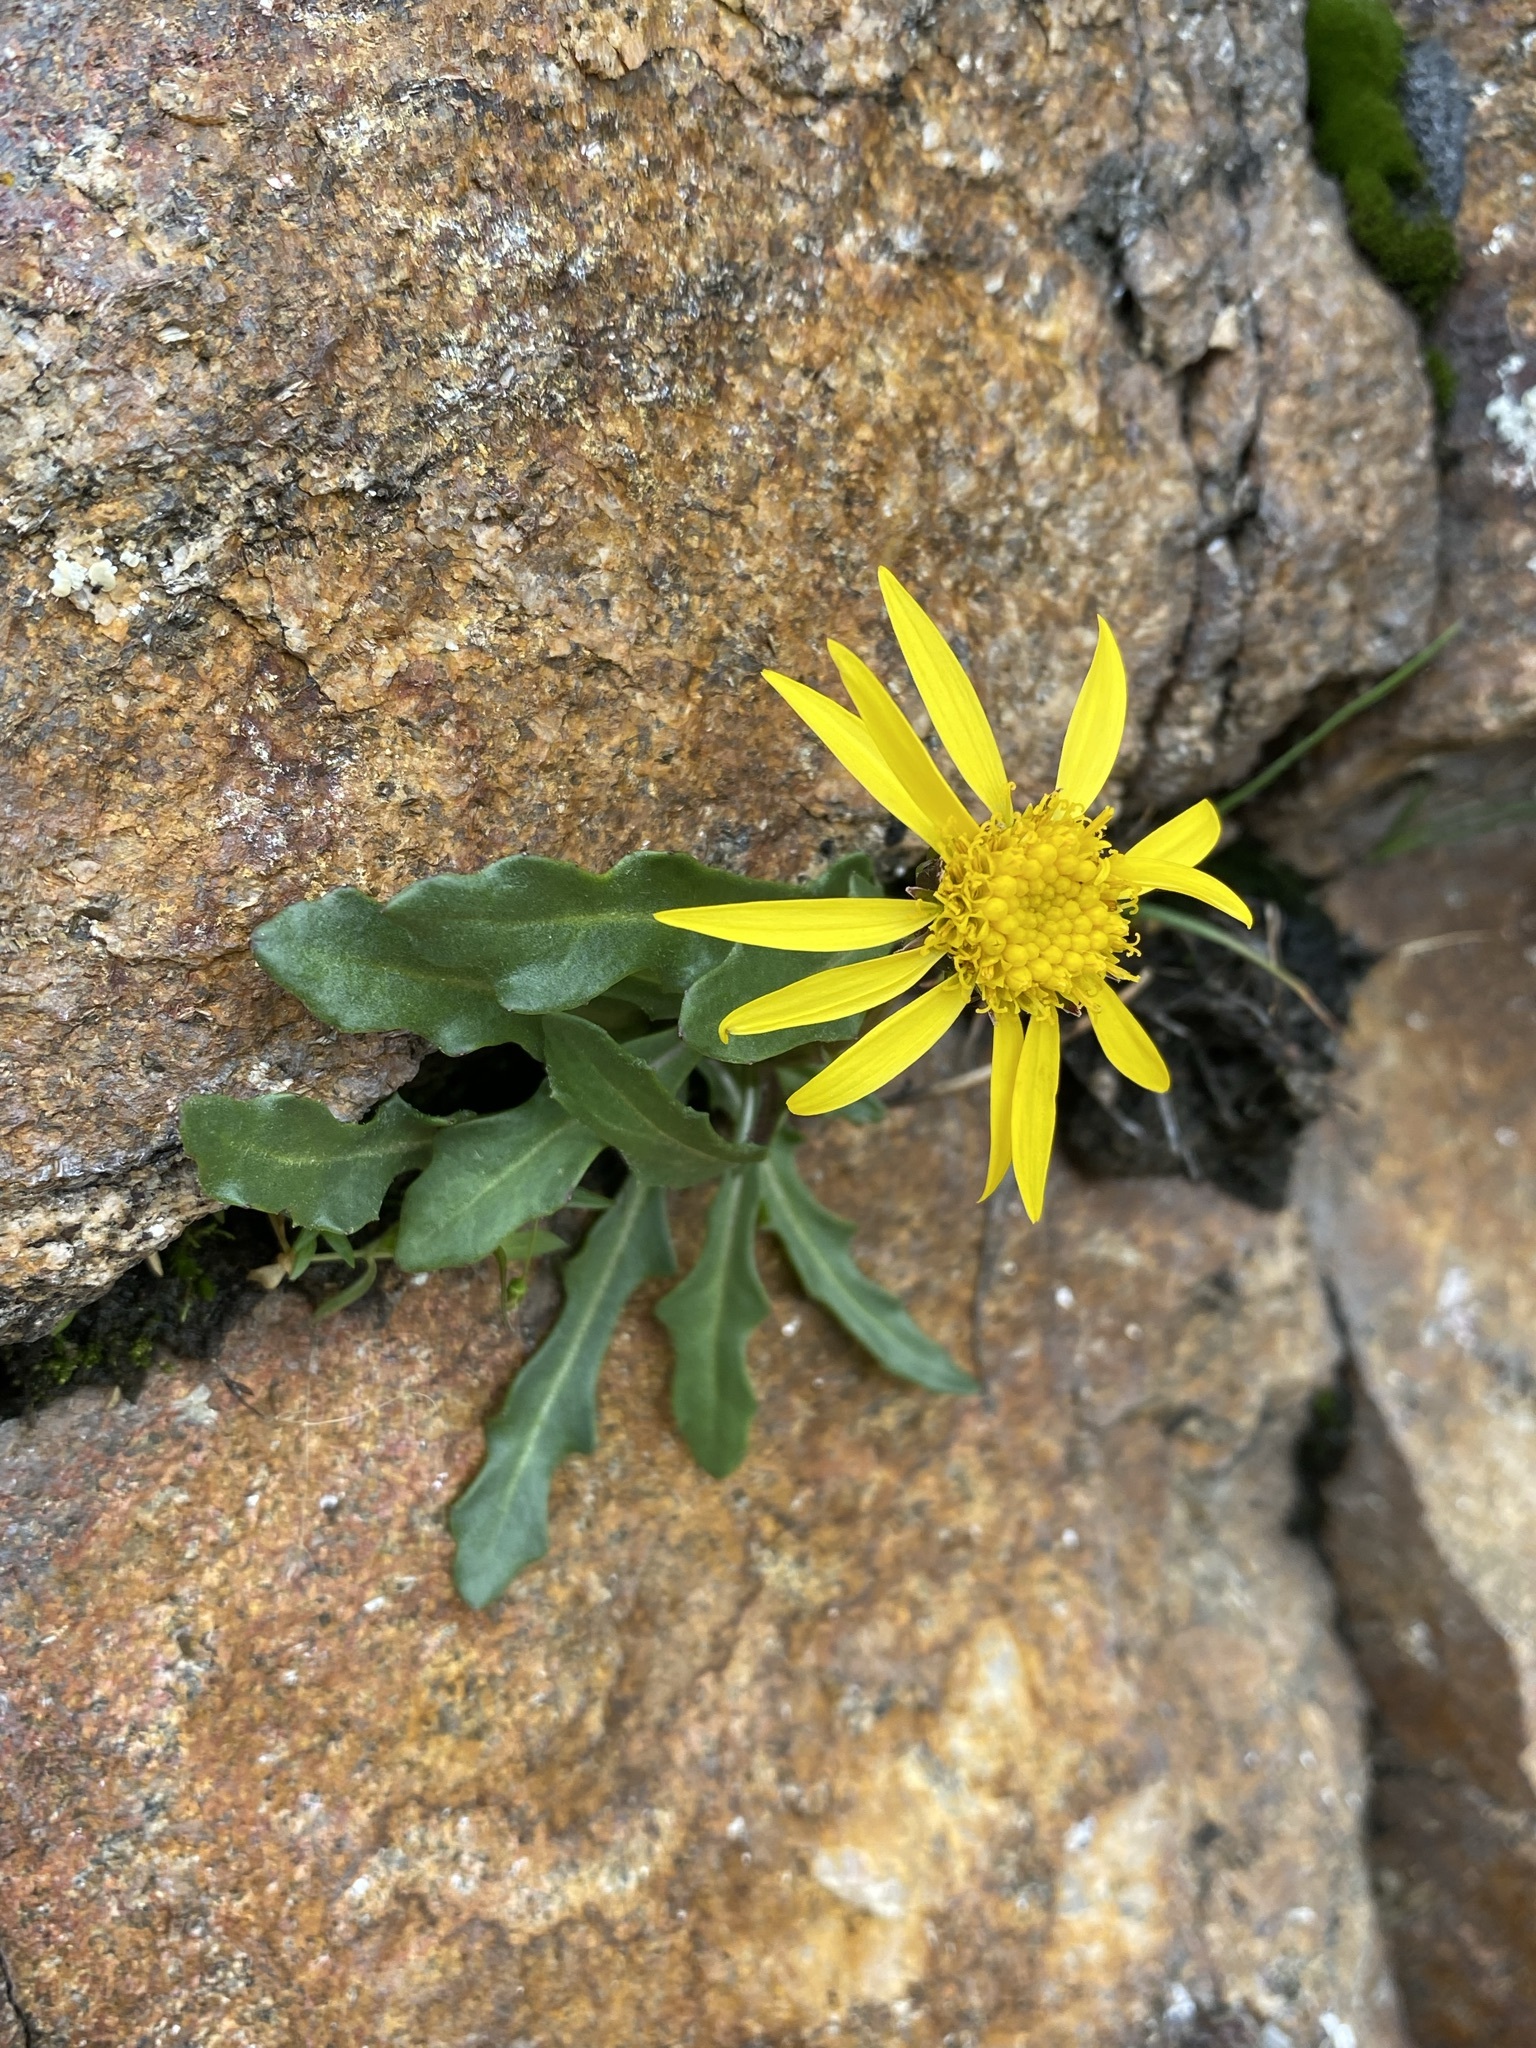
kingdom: Plantae
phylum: Tracheophyta
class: Magnoliopsida
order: Asterales
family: Asteraceae
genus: Senecio
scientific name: Senecio amplectens
